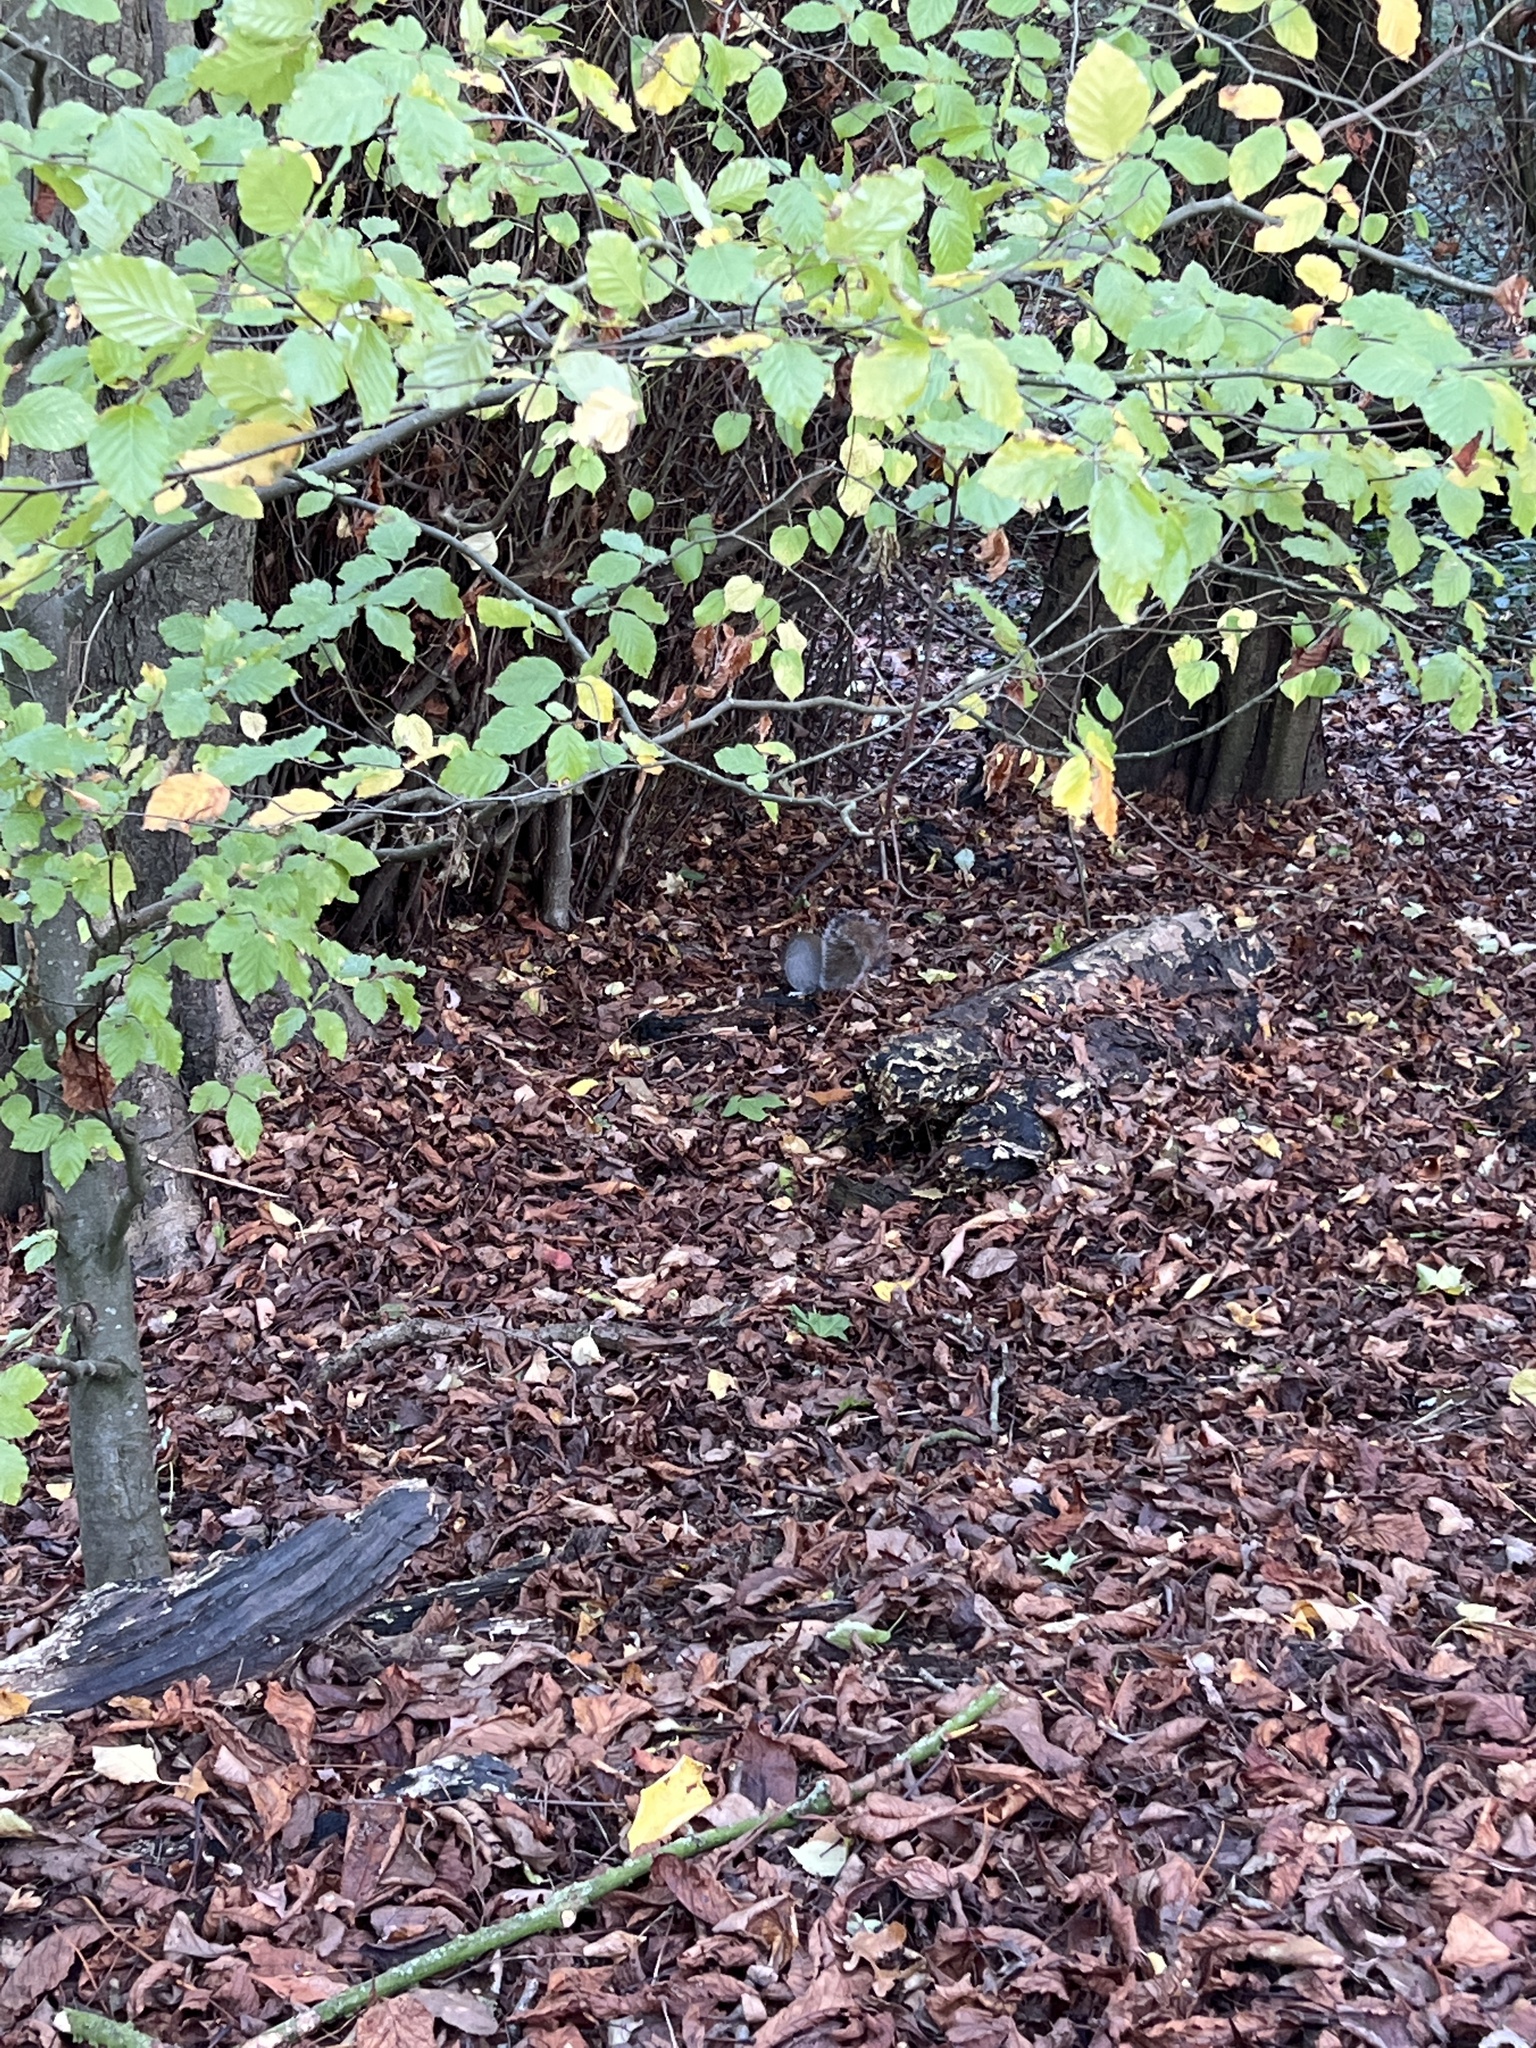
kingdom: Animalia
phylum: Chordata
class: Mammalia
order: Rodentia
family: Sciuridae
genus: Sciurus
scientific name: Sciurus carolinensis
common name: Eastern gray squirrel
